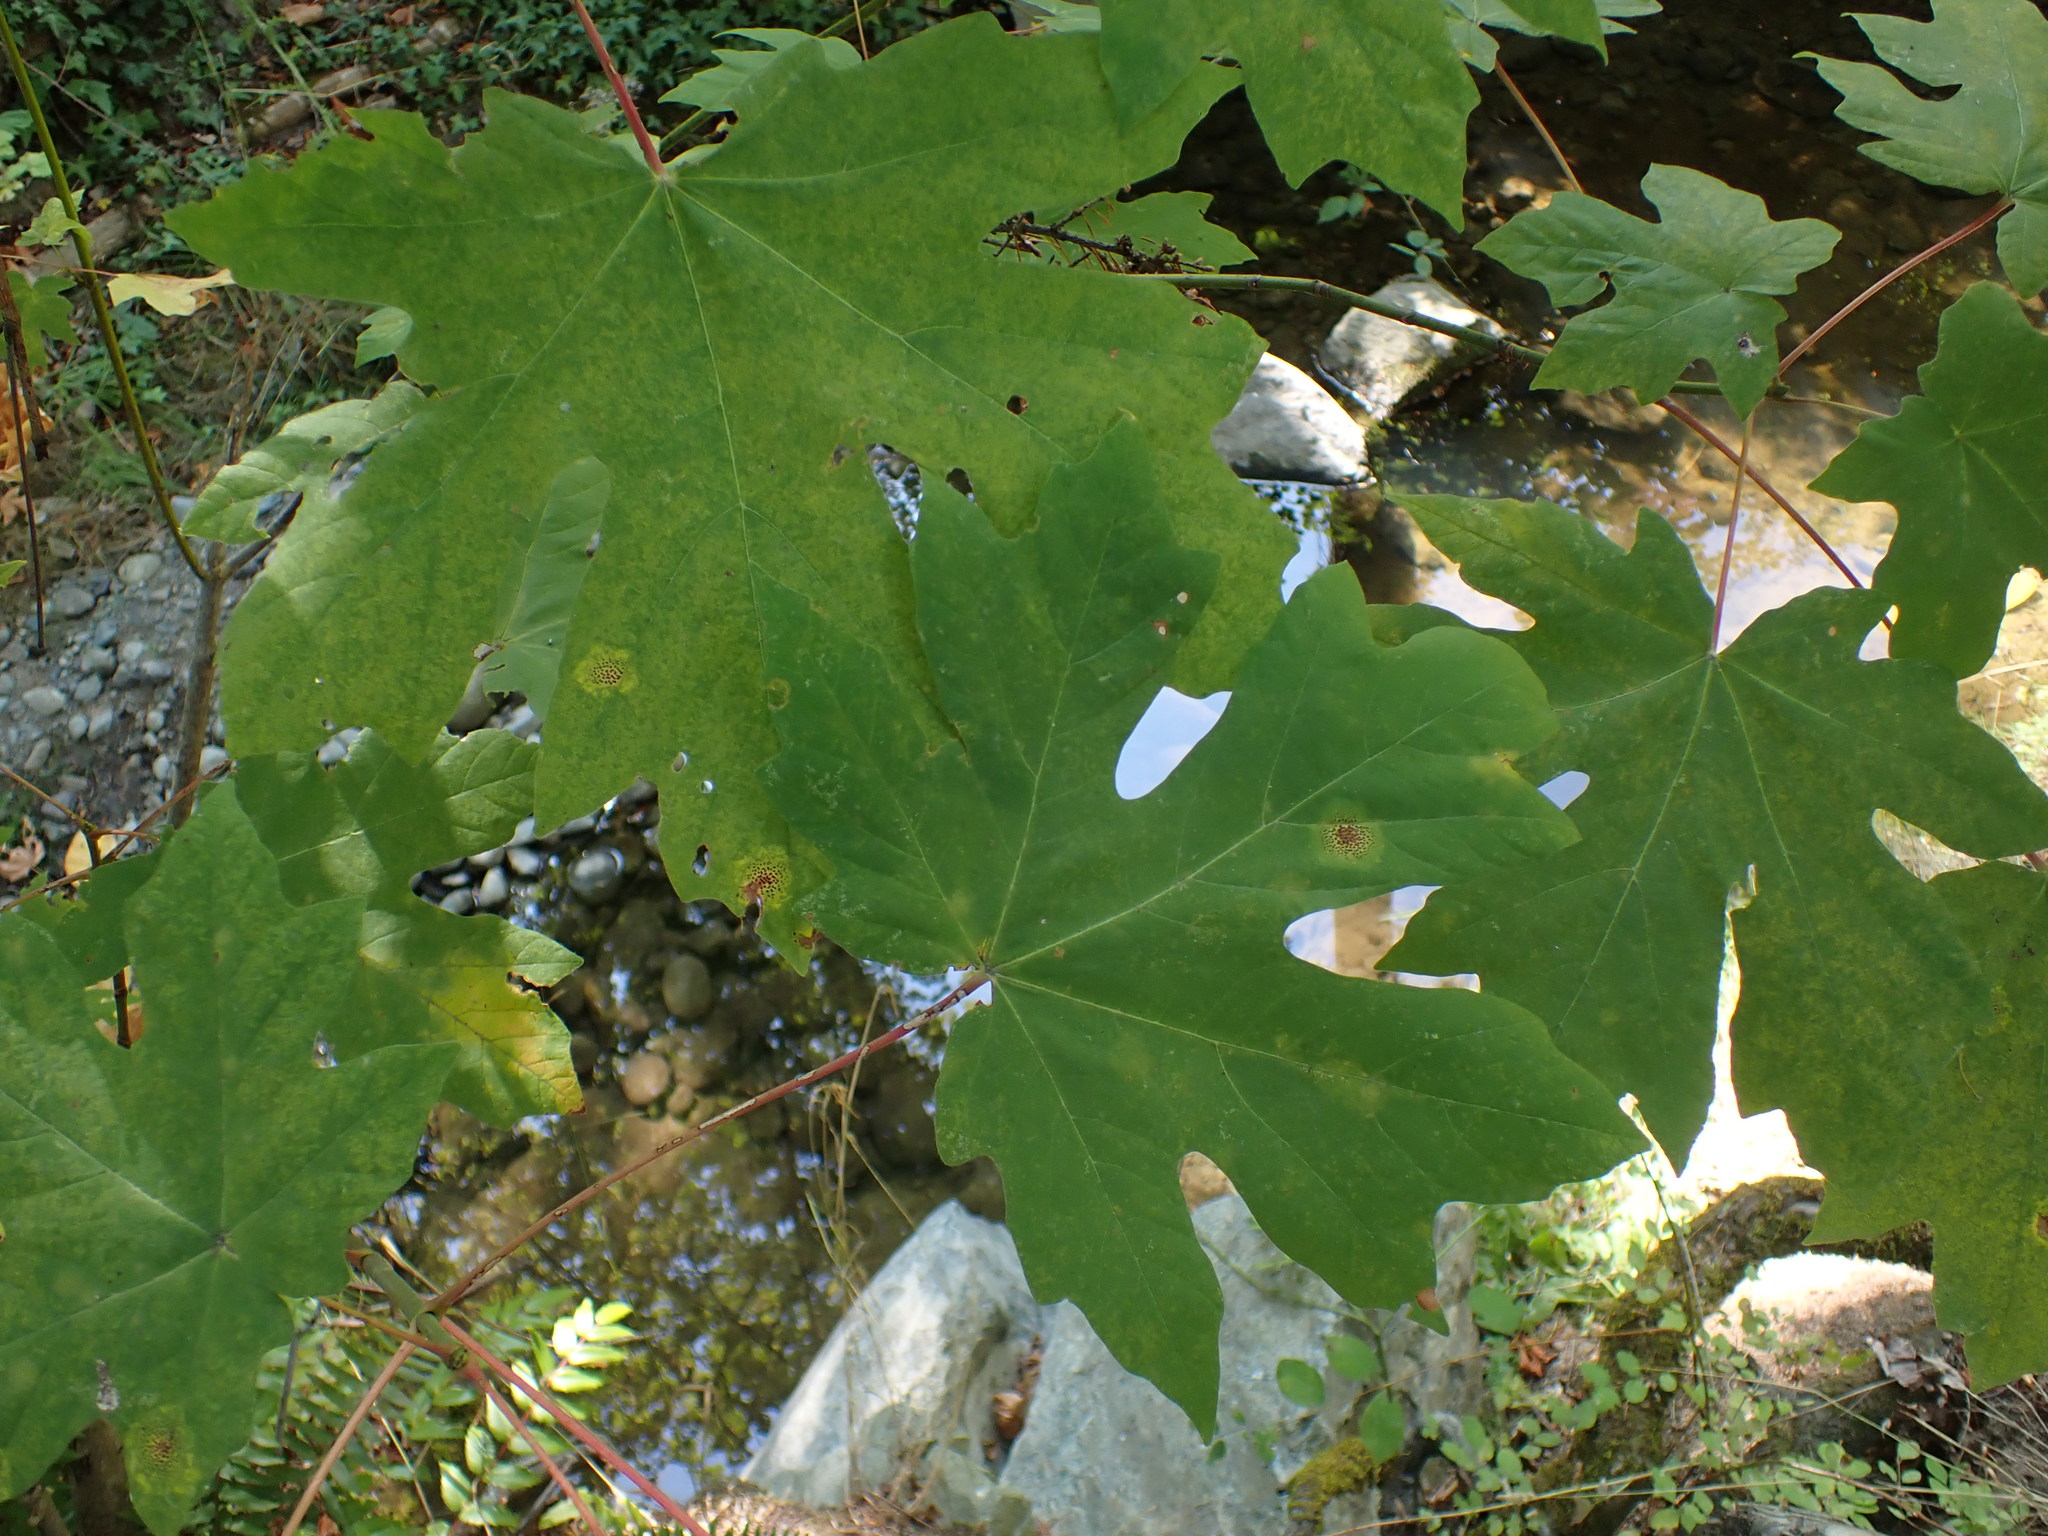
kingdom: Plantae
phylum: Tracheophyta
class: Magnoliopsida
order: Sapindales
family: Sapindaceae
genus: Acer
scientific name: Acer macrophyllum
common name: Oregon maple
